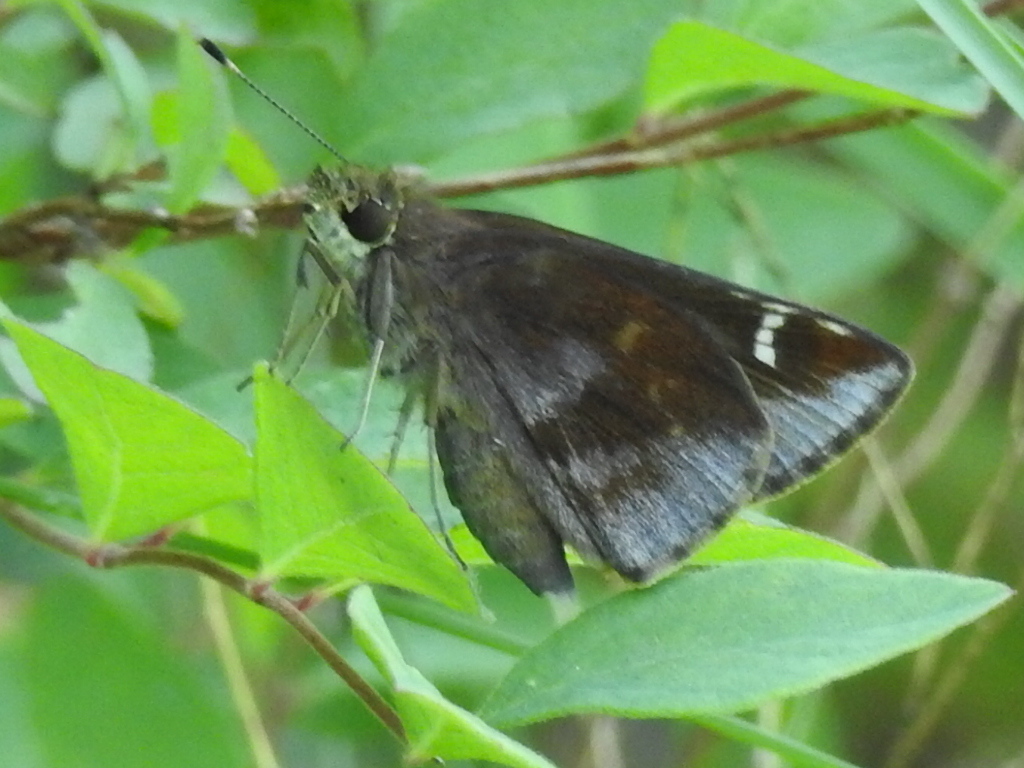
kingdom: Animalia
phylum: Arthropoda
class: Insecta
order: Lepidoptera
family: Hesperiidae
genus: Lerema
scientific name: Lerema accius
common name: Clouded skipper
